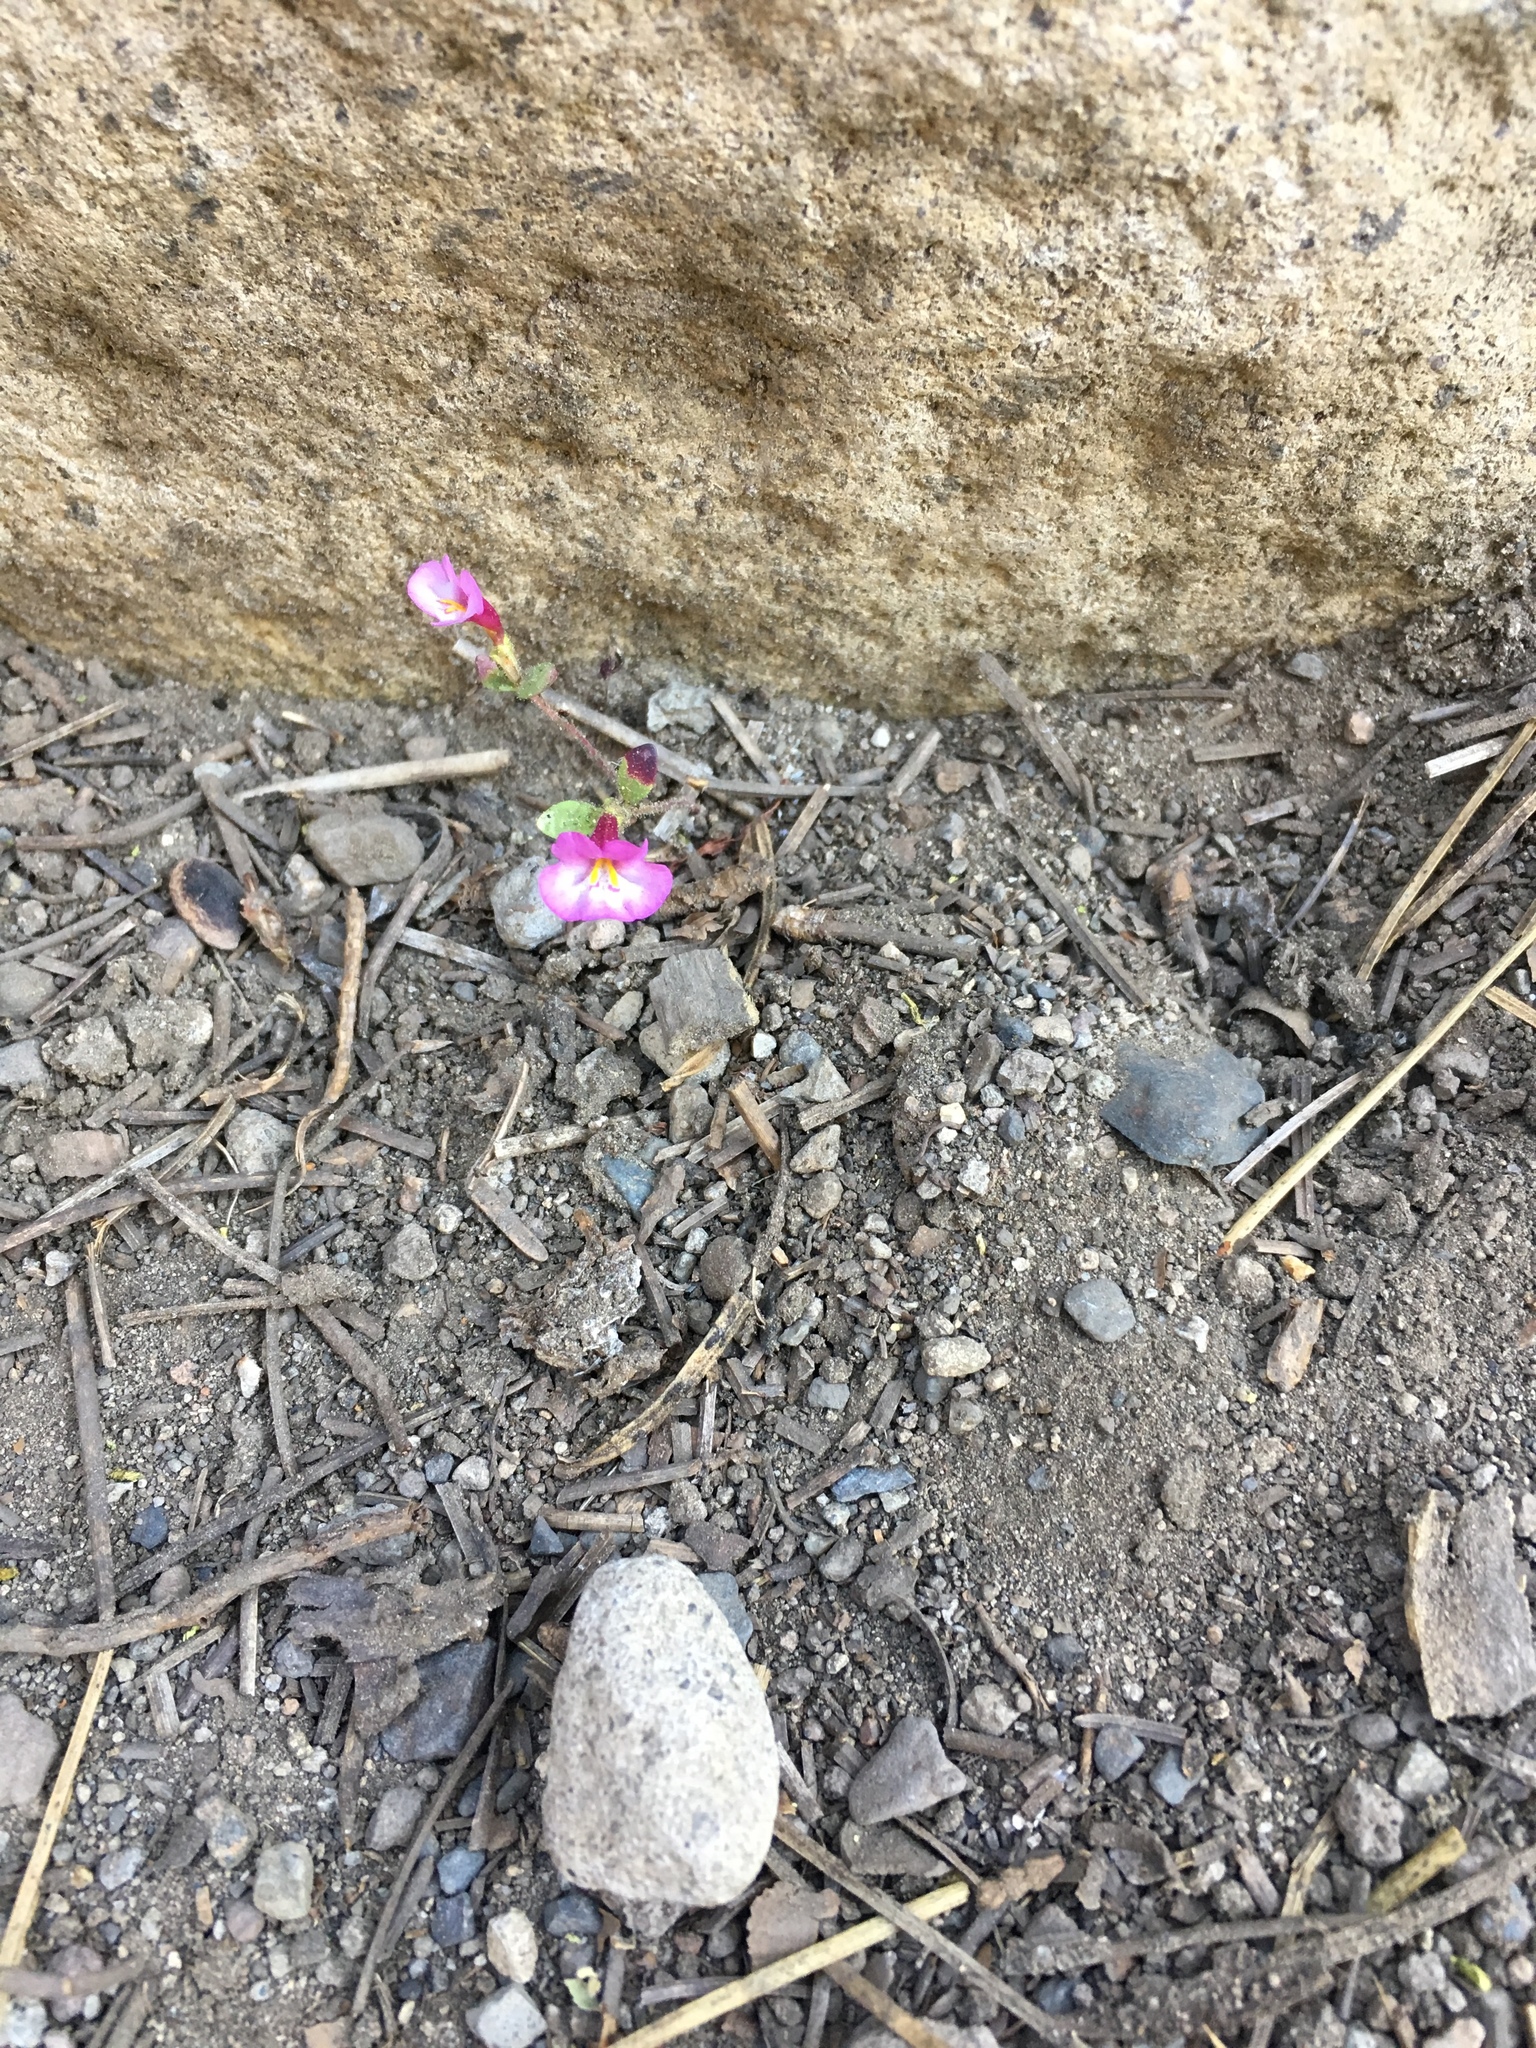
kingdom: Plantae
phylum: Tracheophyta
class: Magnoliopsida
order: Lamiales
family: Phrymaceae
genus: Diplacus
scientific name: Diplacus torreyi
